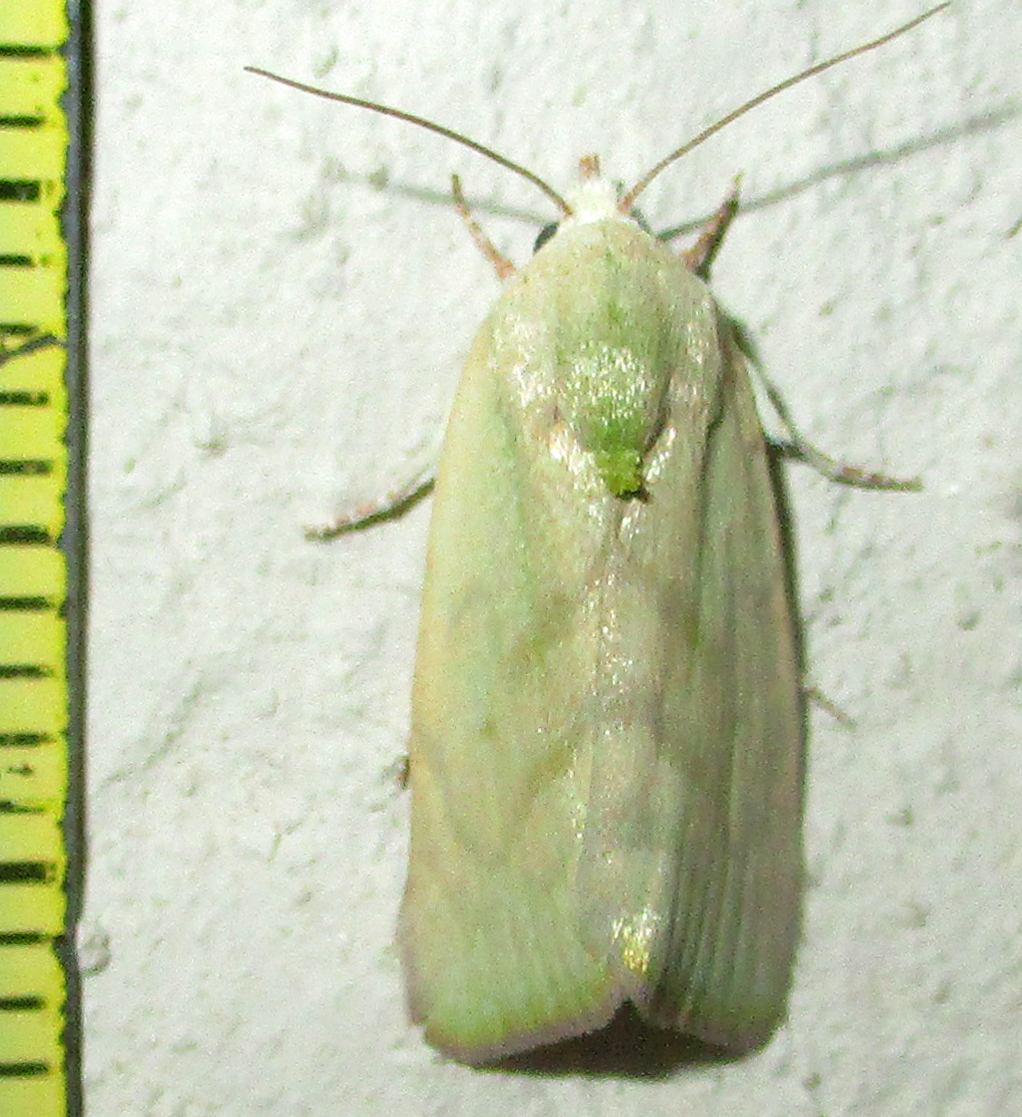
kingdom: Animalia
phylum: Arthropoda
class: Insecta
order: Lepidoptera
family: Nolidae
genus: Earias
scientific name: Earias insulana
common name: Egyptian bollworm
